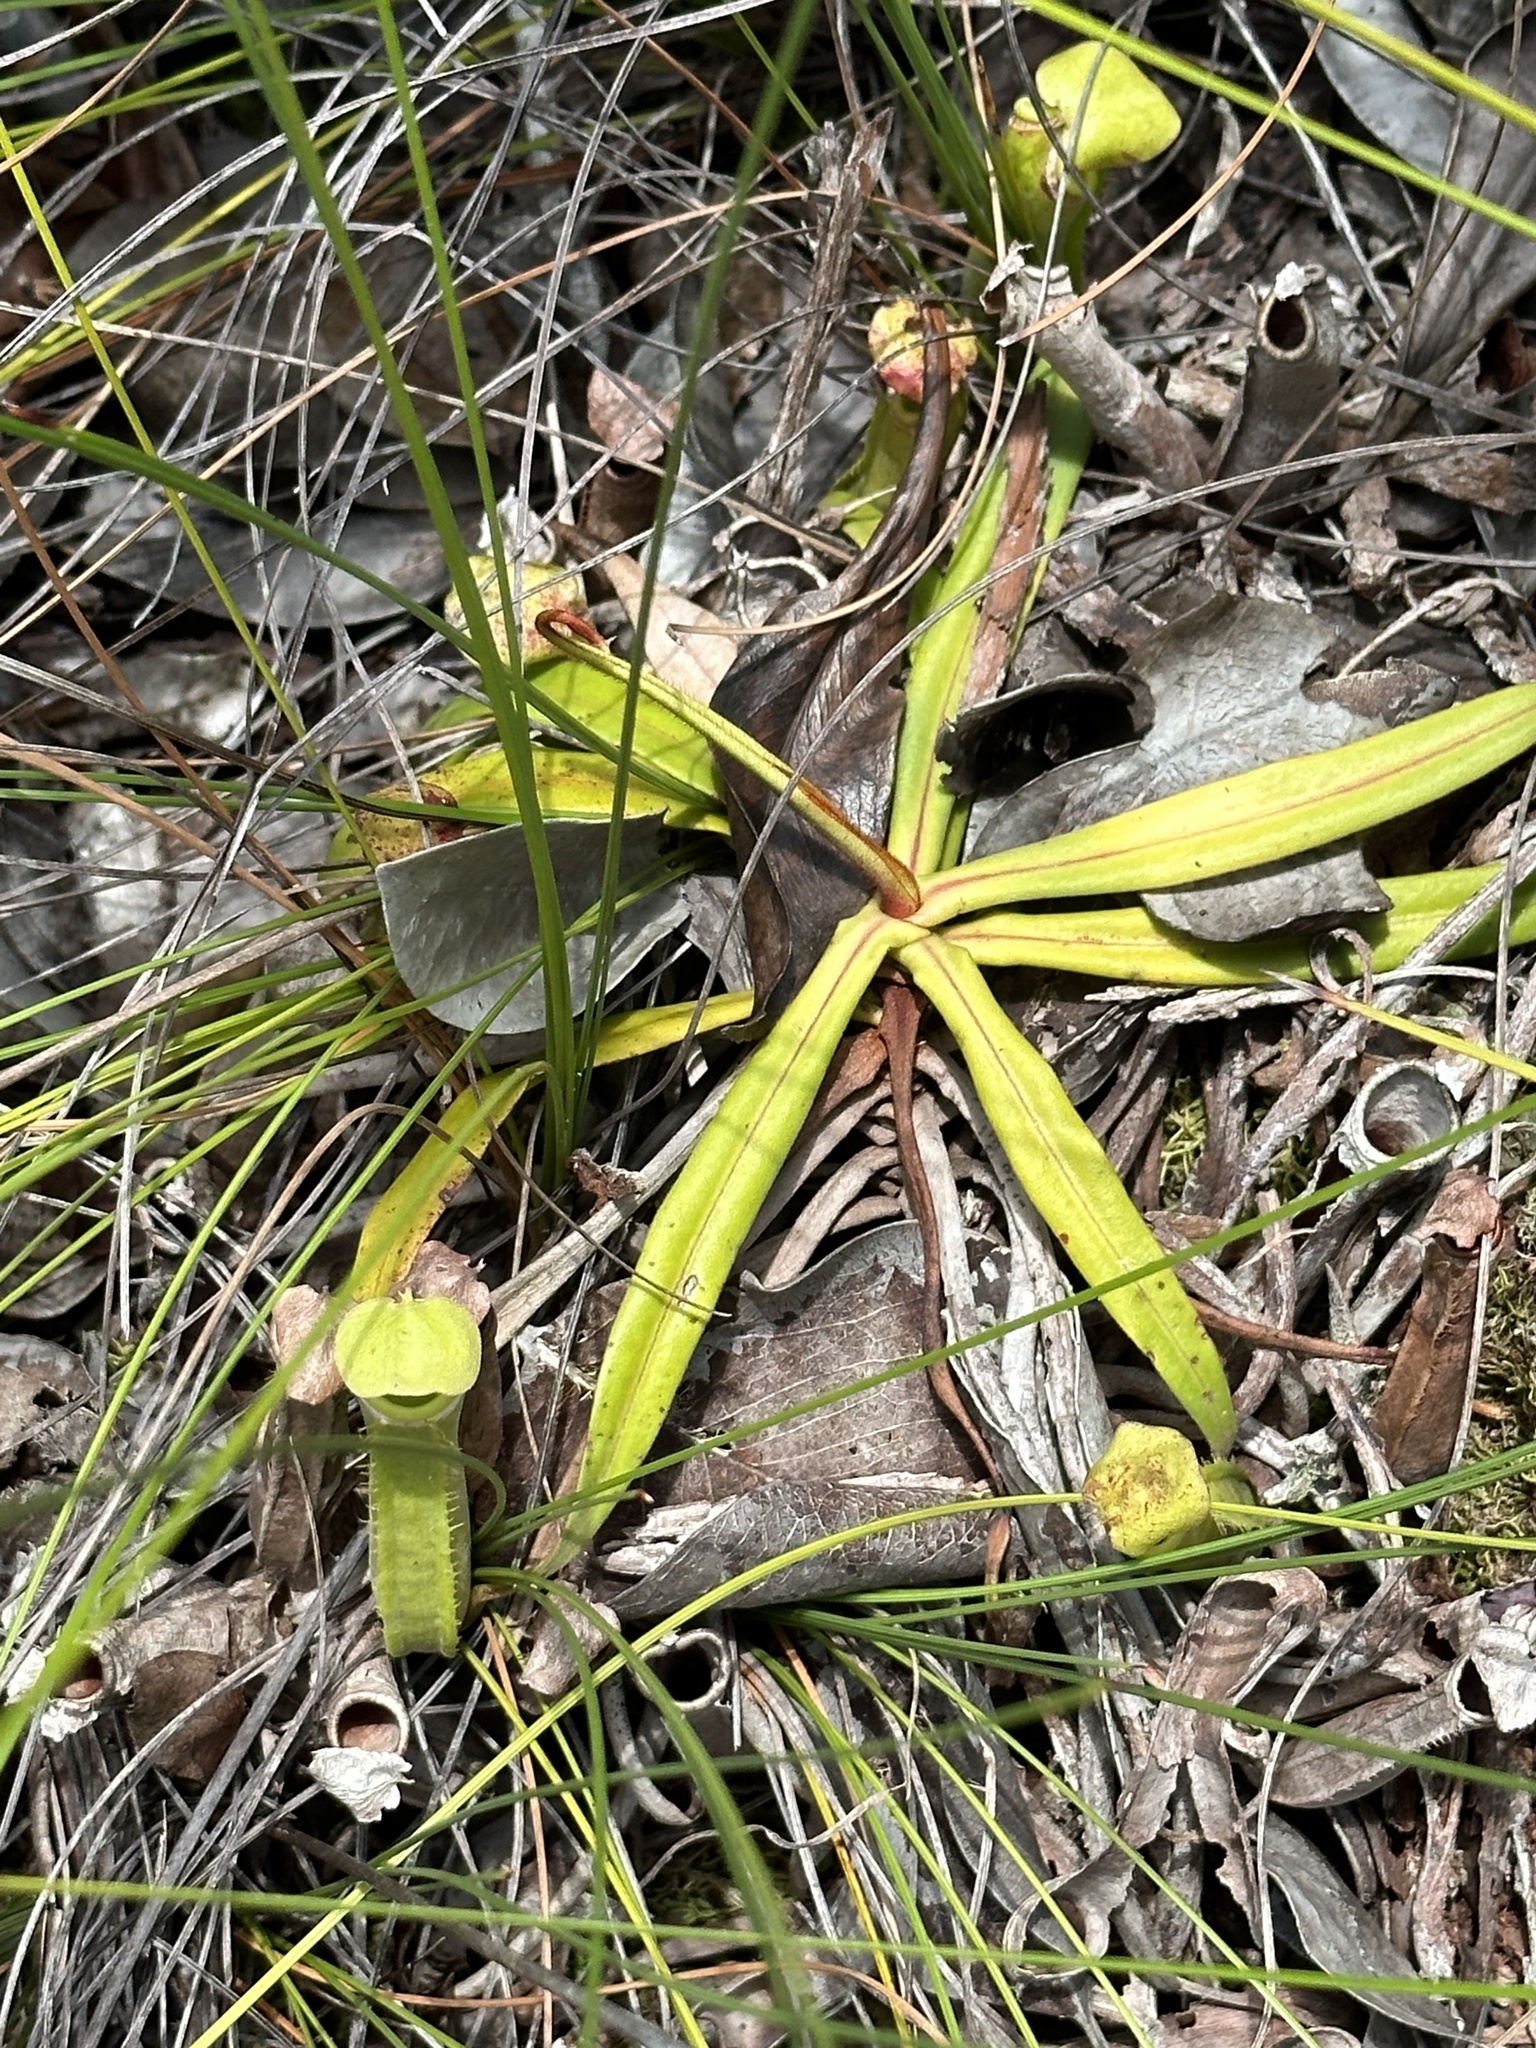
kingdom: Plantae
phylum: Tracheophyta
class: Magnoliopsida
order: Caryophyllales
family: Nepenthaceae
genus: Nepenthes
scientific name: Nepenthes albomarginata
